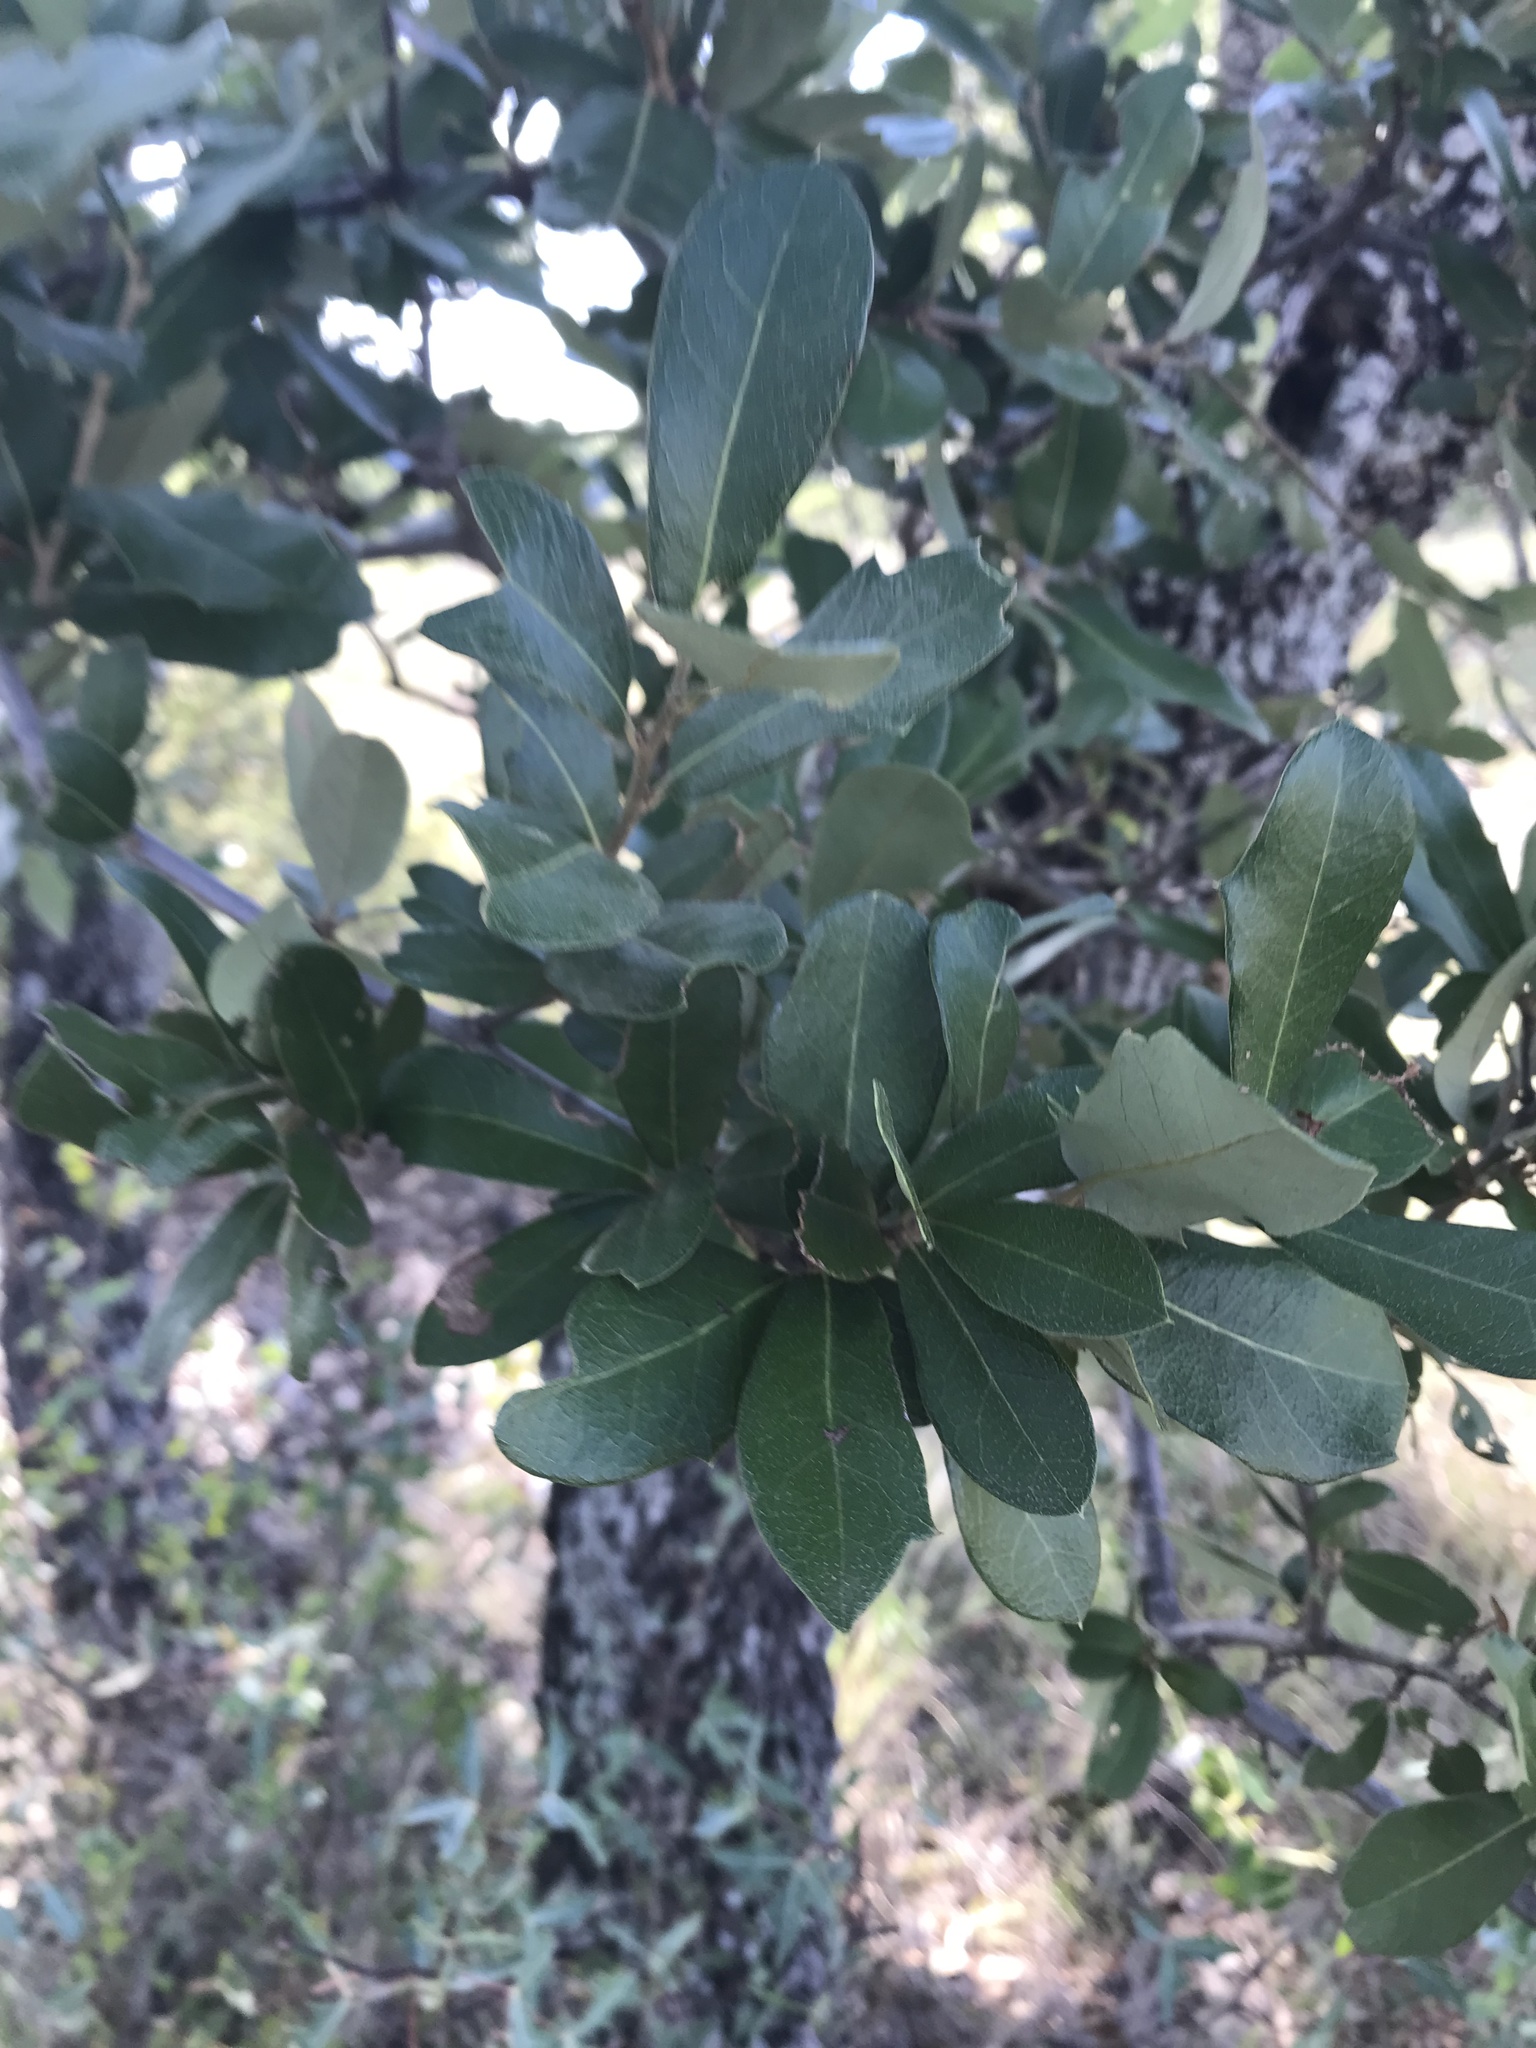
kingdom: Plantae
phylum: Tracheophyta
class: Magnoliopsida
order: Fagales
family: Fagaceae
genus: Quercus
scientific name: Quercus fusiformis
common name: Texas live oak
